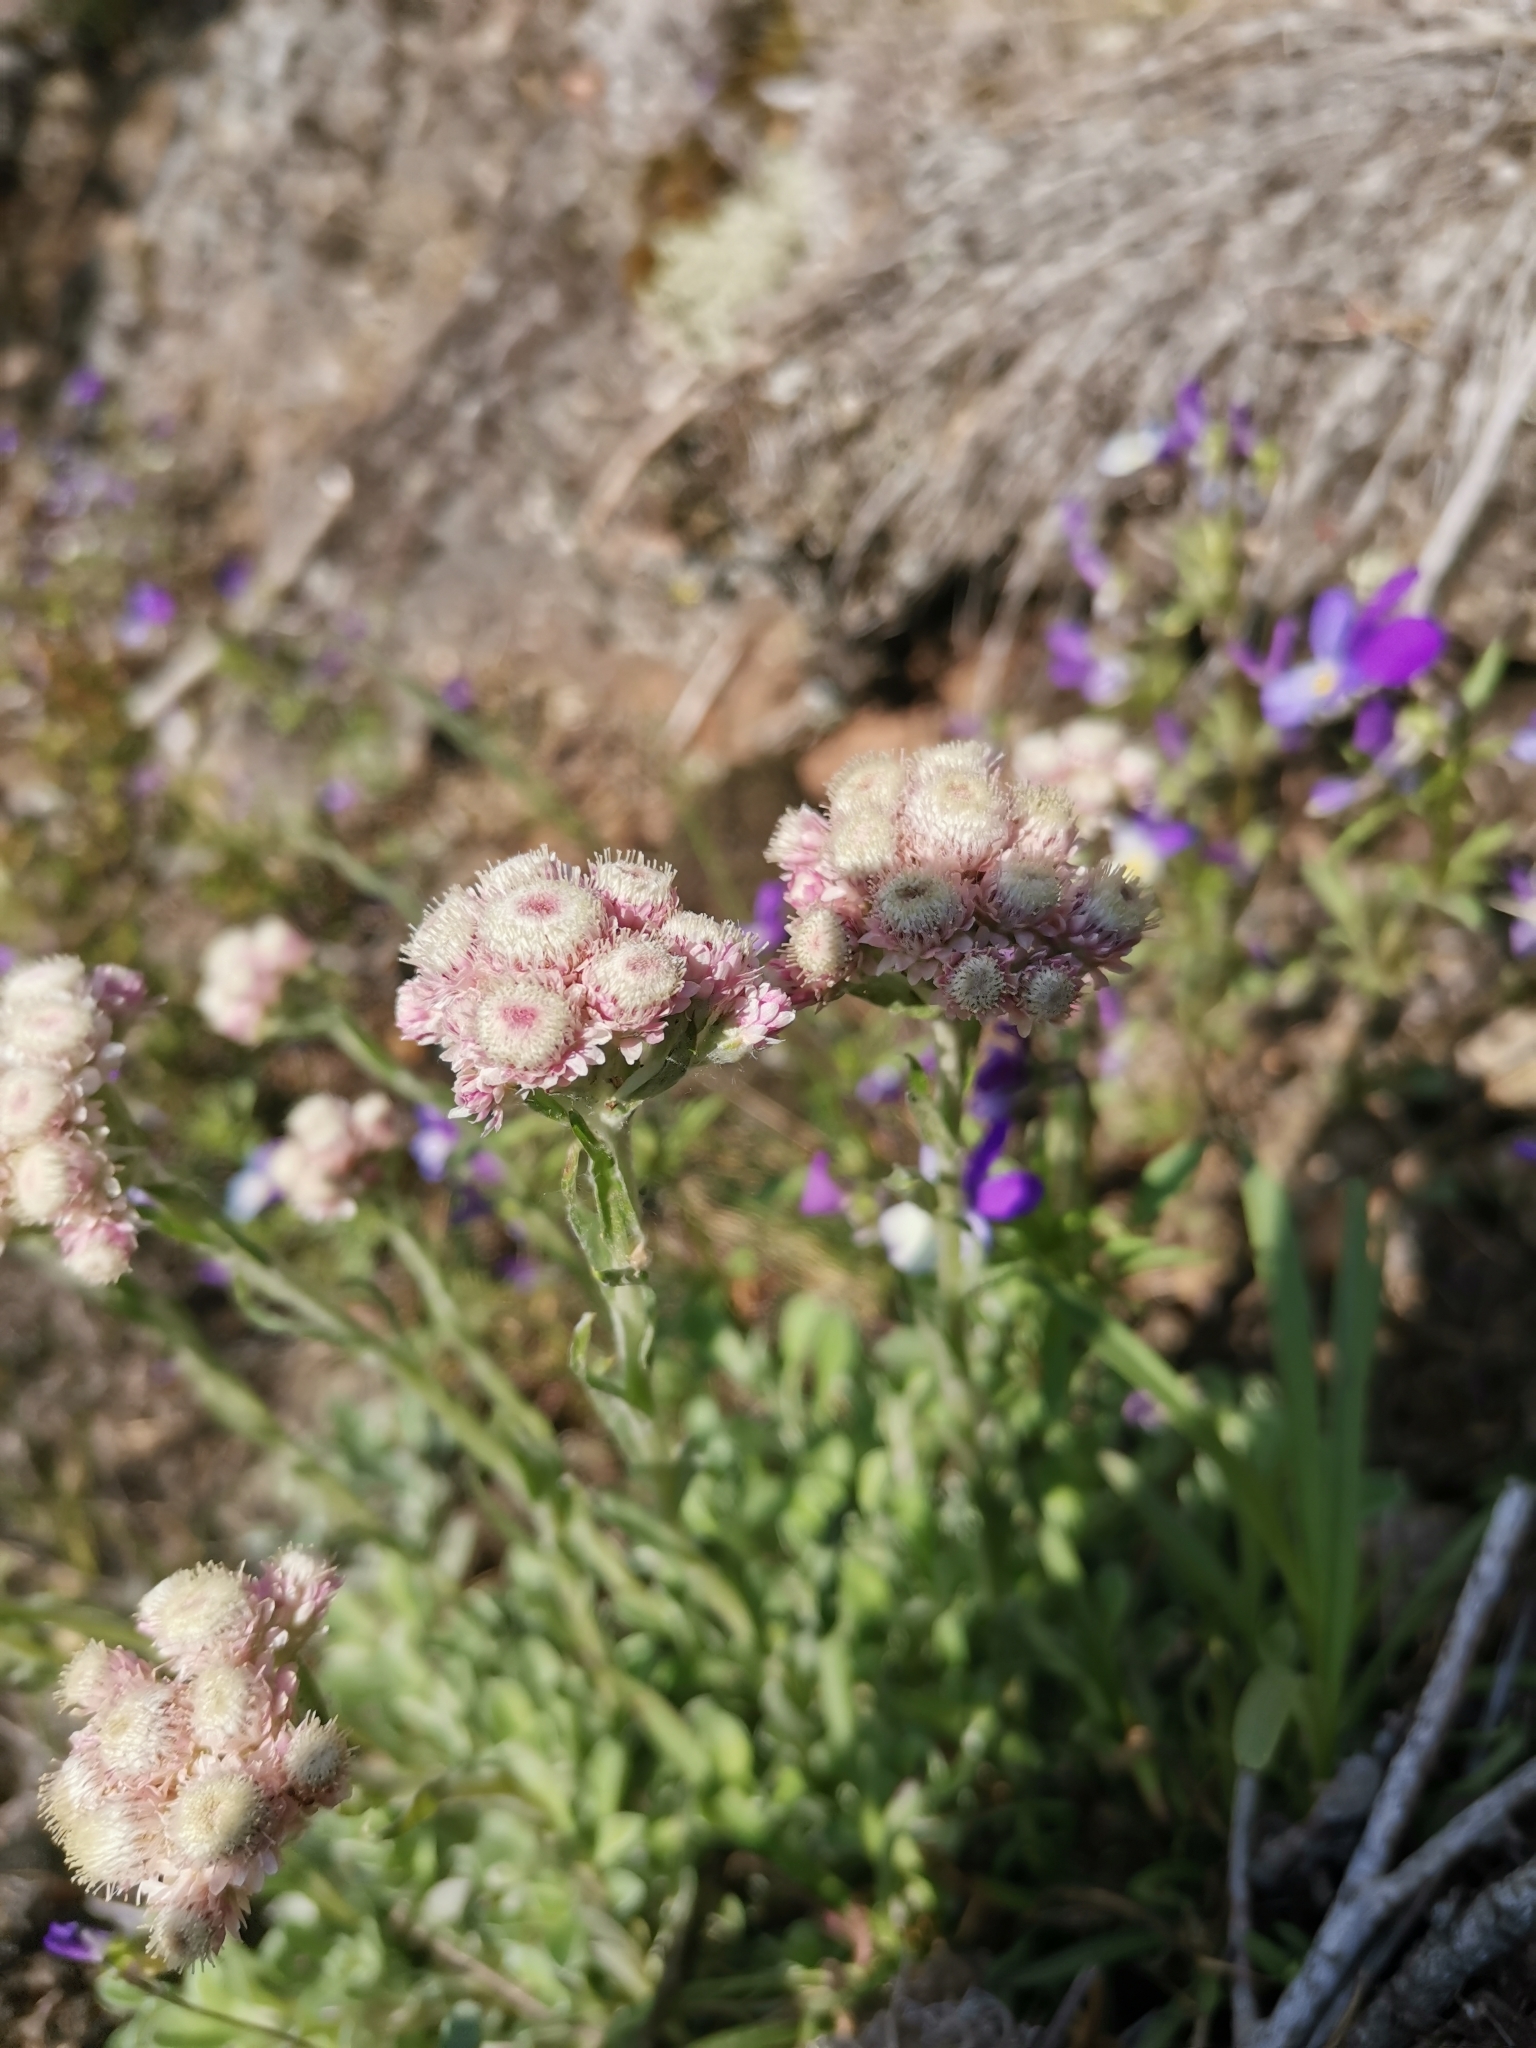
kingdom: Plantae
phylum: Tracheophyta
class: Magnoliopsida
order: Asterales
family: Asteraceae
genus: Antennaria
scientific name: Antennaria dioica
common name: Mountain everlasting
